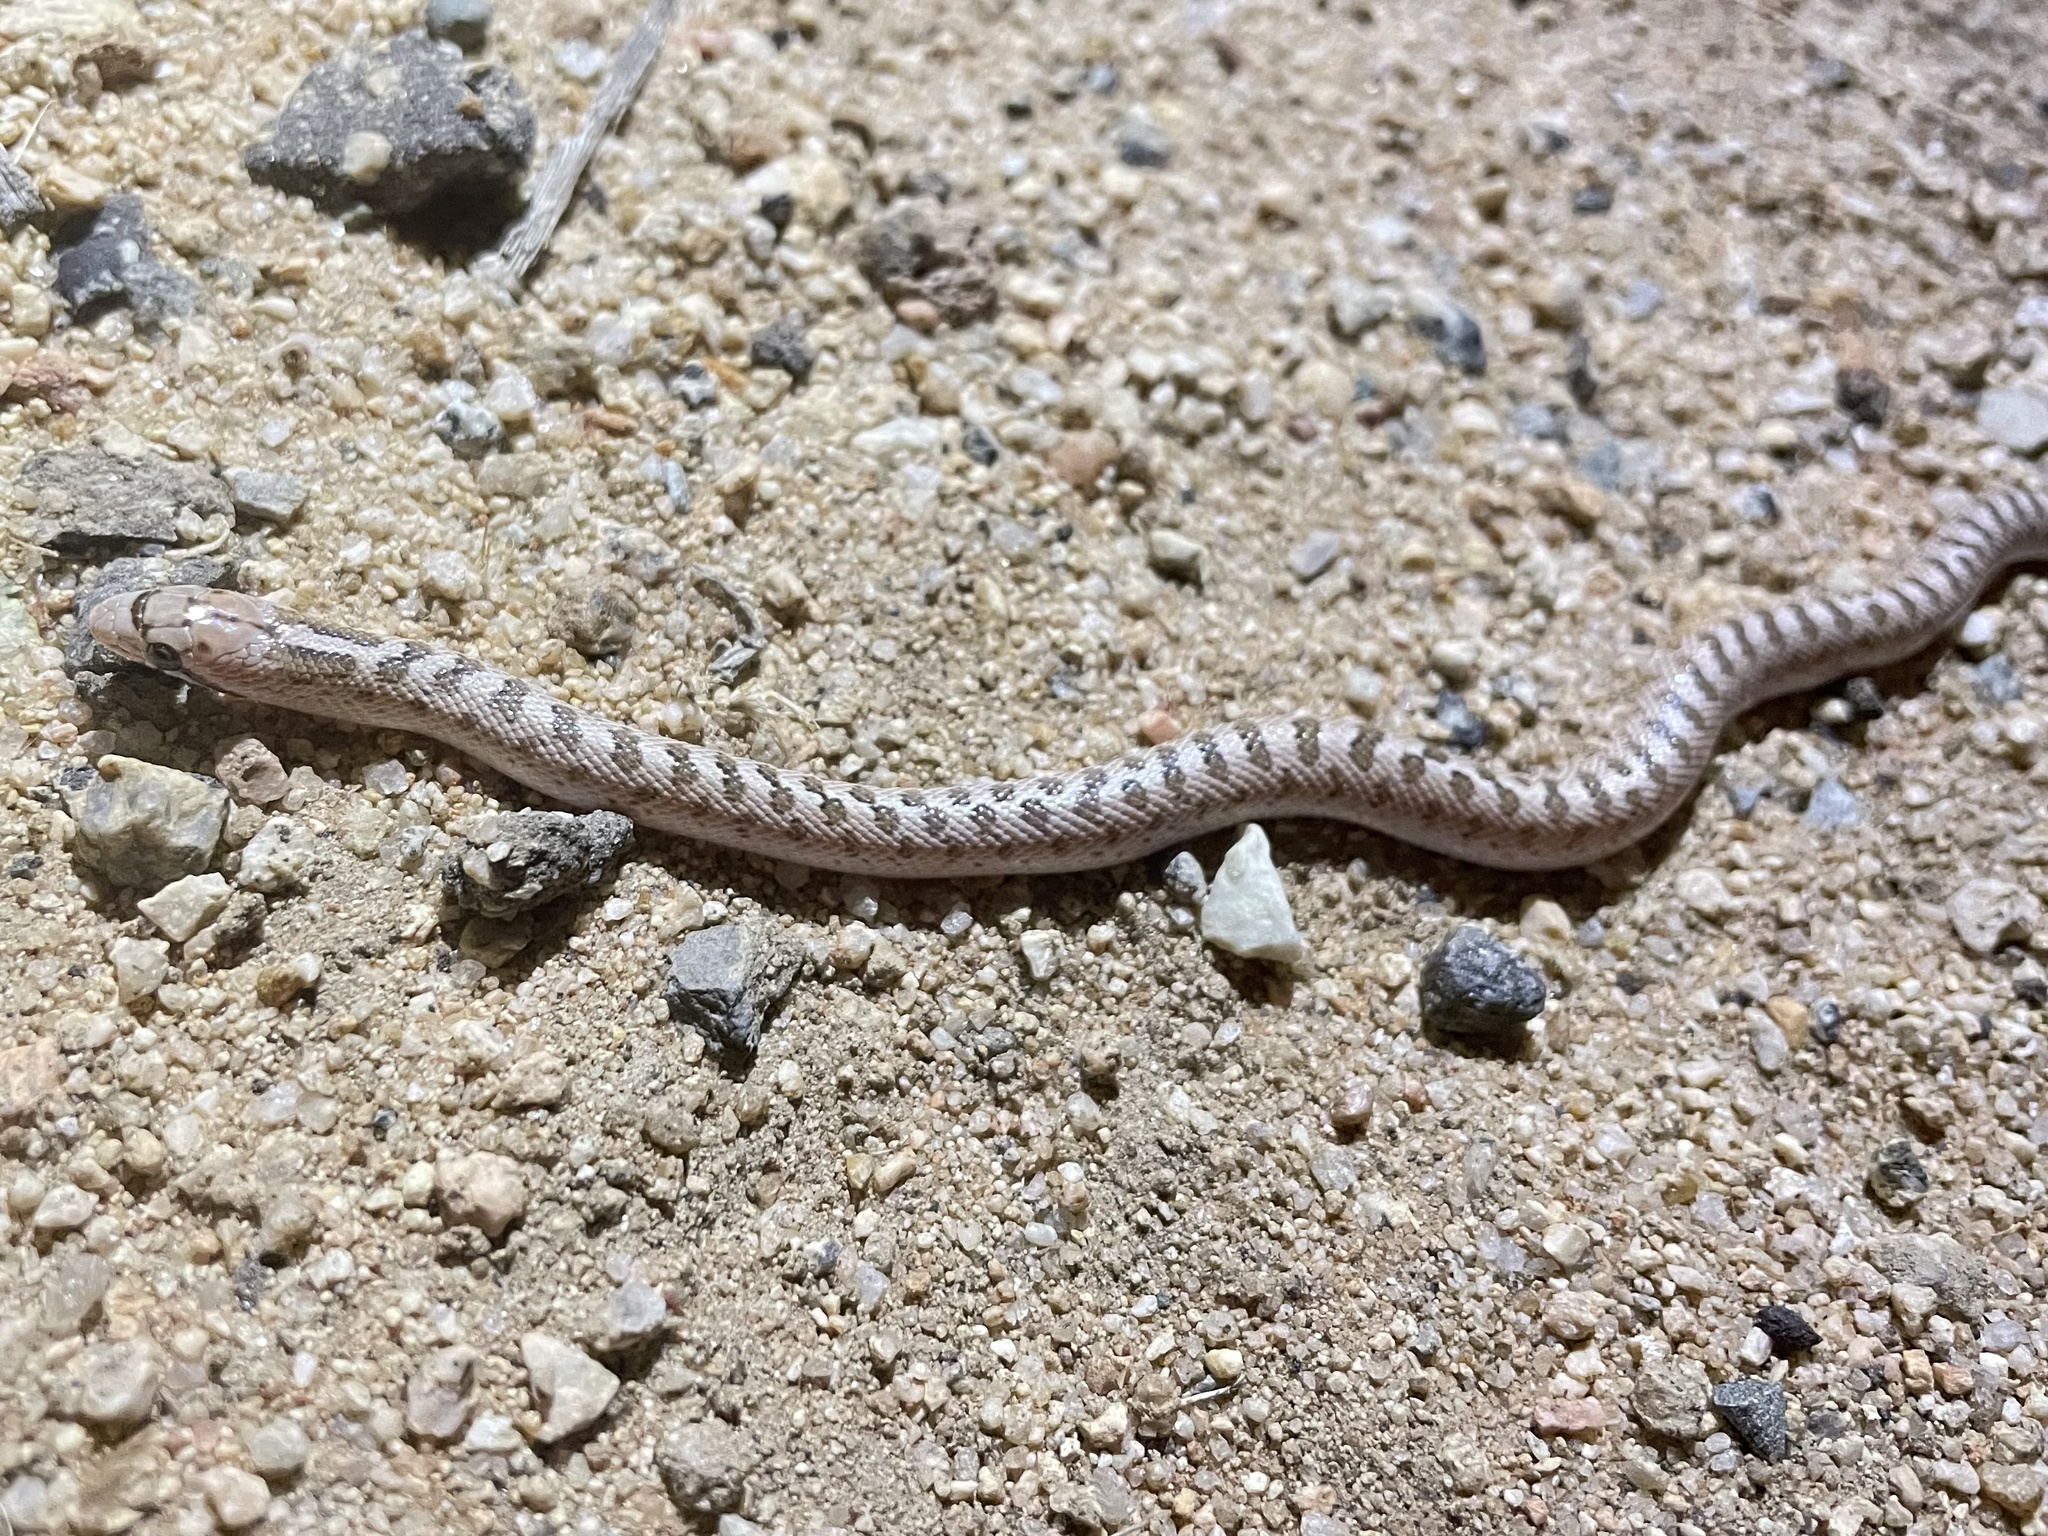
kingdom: Animalia
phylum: Chordata
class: Squamata
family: Colubridae
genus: Arizona
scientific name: Arizona elegans
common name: Glossy snake
